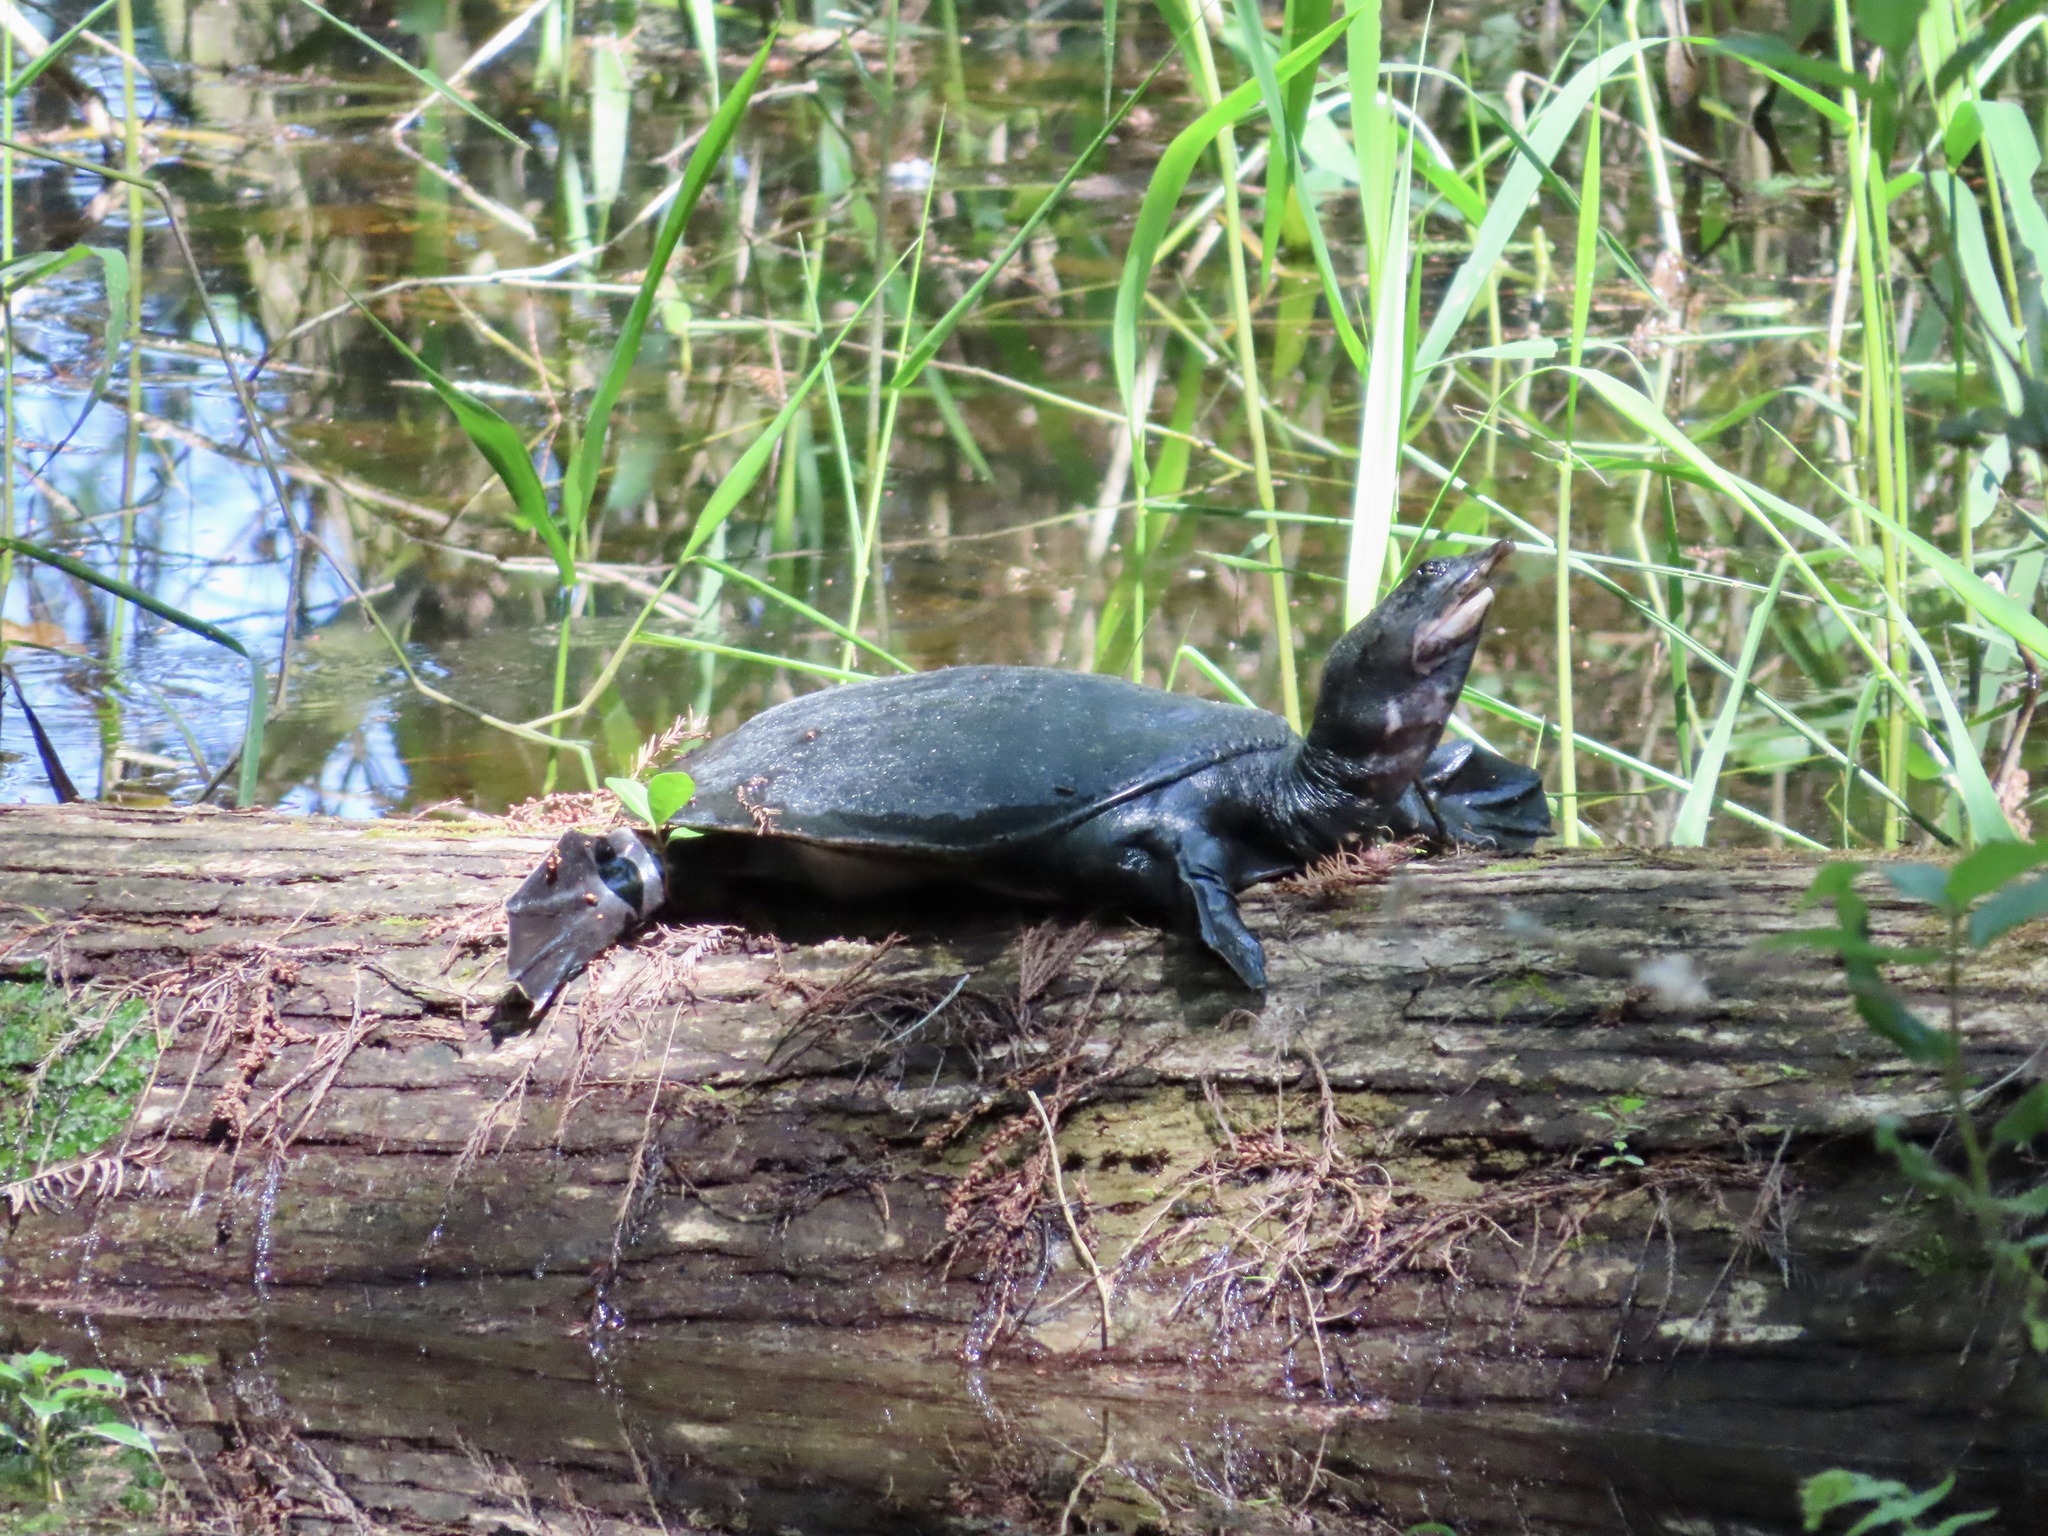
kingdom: Animalia
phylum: Chordata
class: Testudines
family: Trionychidae
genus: Apalone
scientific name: Apalone ferox
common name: Florida softshell turtle
